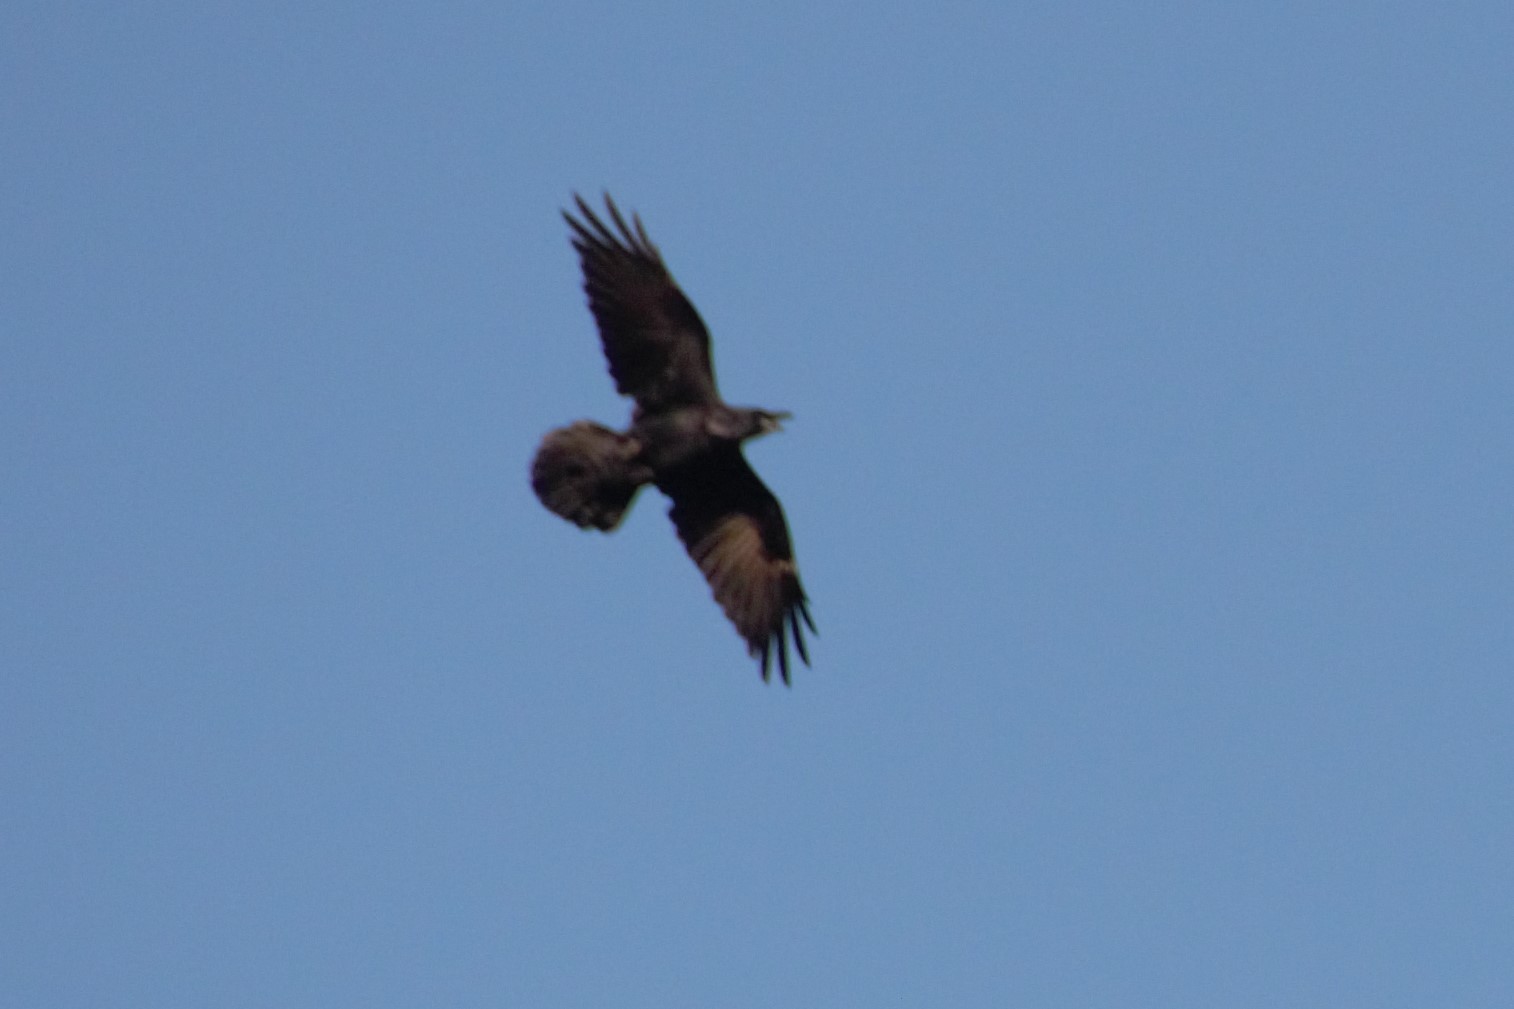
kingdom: Animalia
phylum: Chordata
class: Aves
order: Passeriformes
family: Corvidae
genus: Corvus
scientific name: Corvus corax
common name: Common raven
